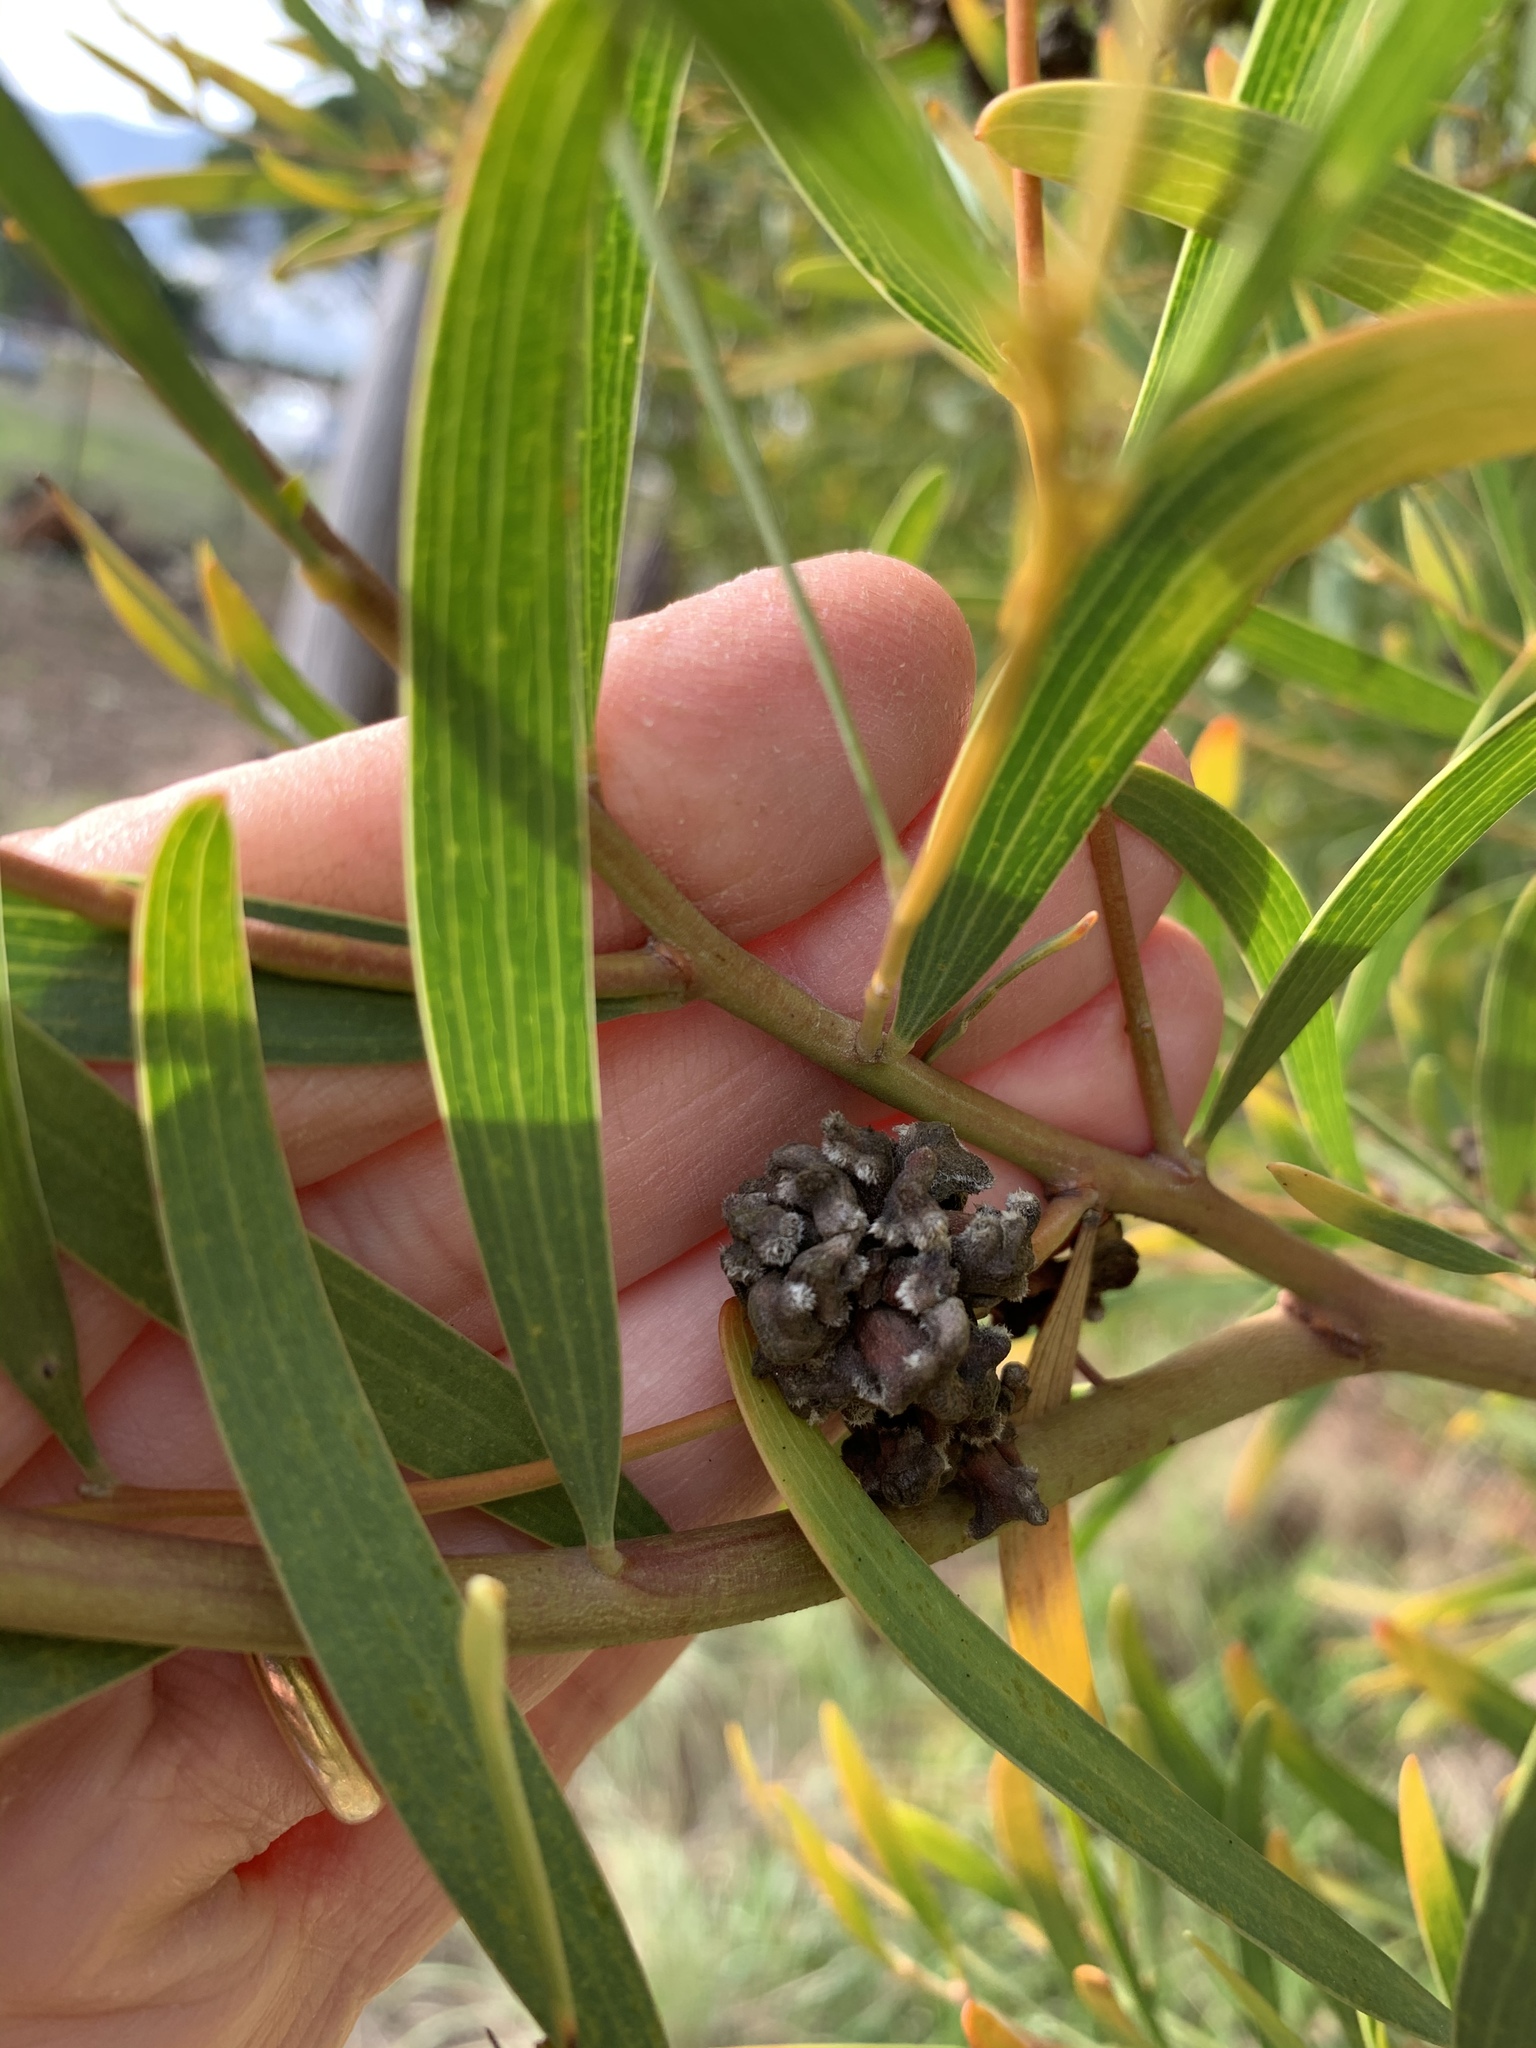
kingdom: Plantae
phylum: Tracheophyta
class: Magnoliopsida
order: Fabales
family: Fabaceae
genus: Acacia
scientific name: Acacia cyclops
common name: Coastal wattle
